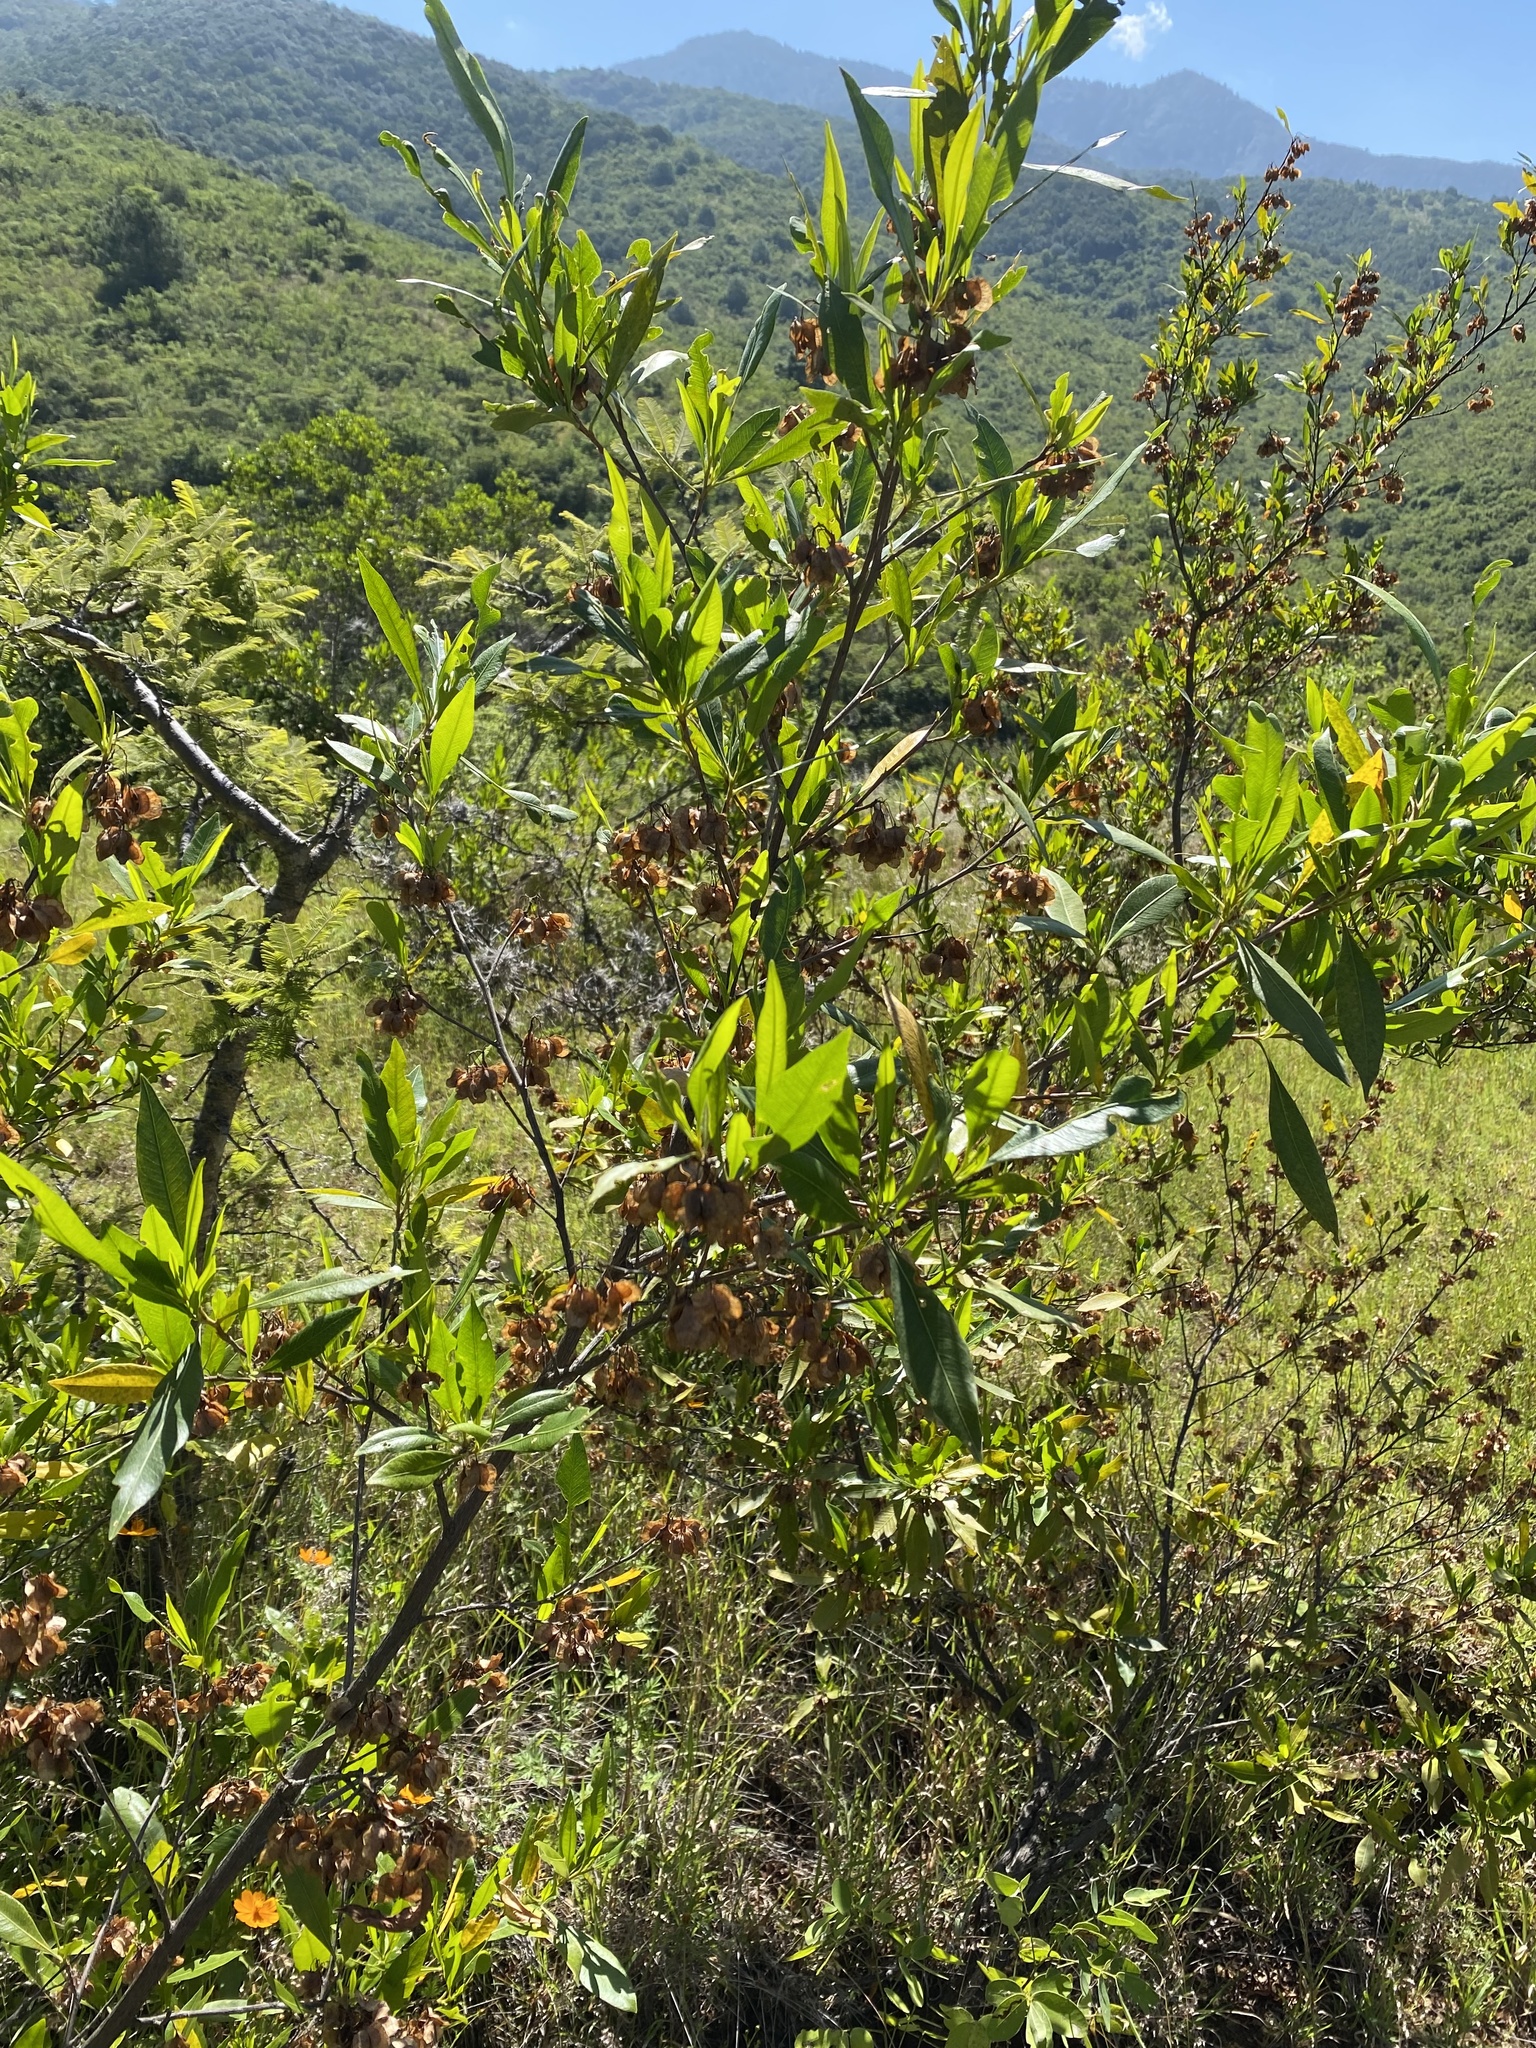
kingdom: Plantae
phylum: Tracheophyta
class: Magnoliopsida
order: Sapindales
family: Sapindaceae
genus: Dodonaea
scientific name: Dodonaea viscosa
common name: Hopbush
